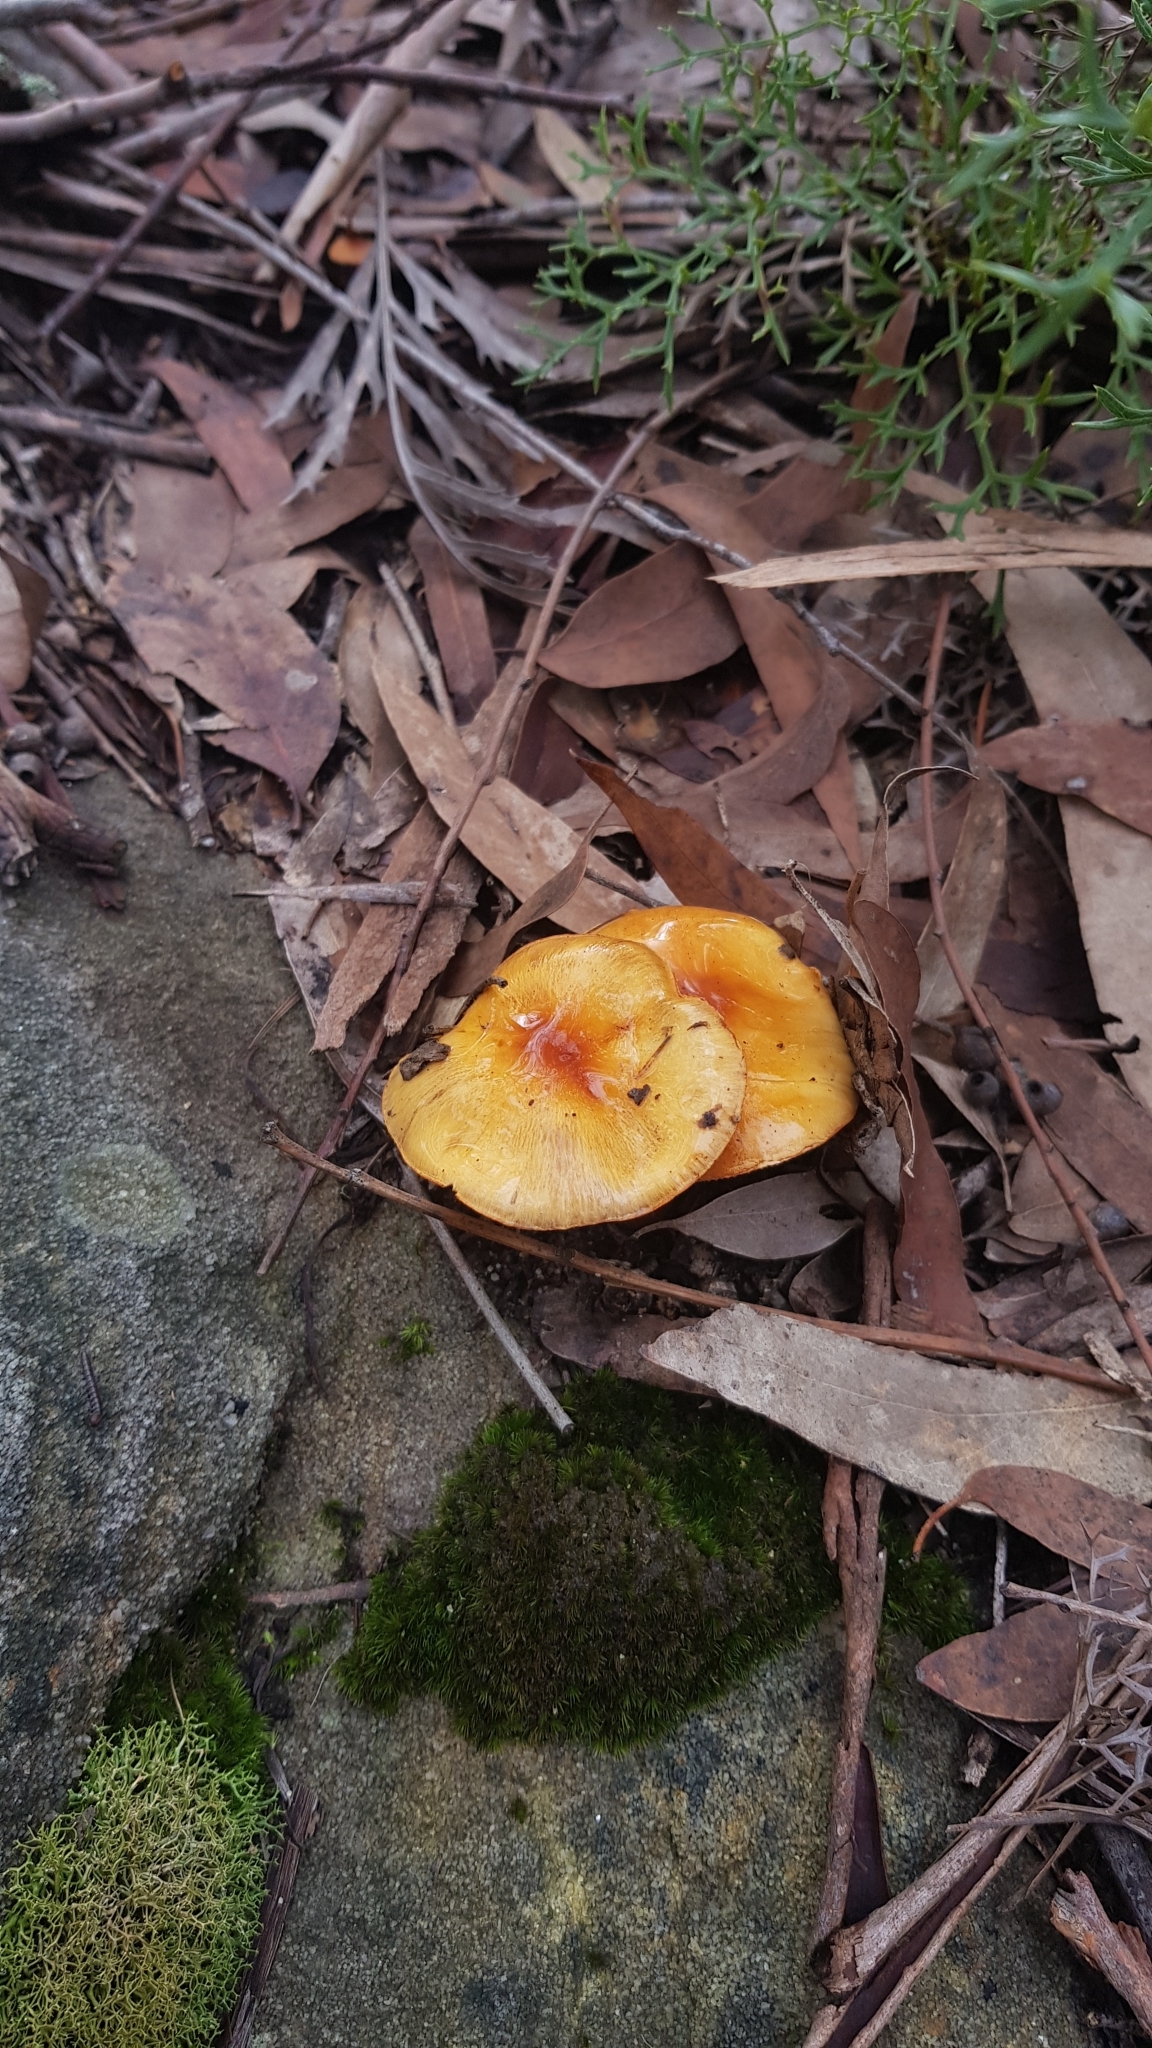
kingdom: Fungi
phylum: Basidiomycota
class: Agaricomycetes
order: Agaricales
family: Cortinariaceae
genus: Cortinarius
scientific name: Cortinarius sinapicolor
